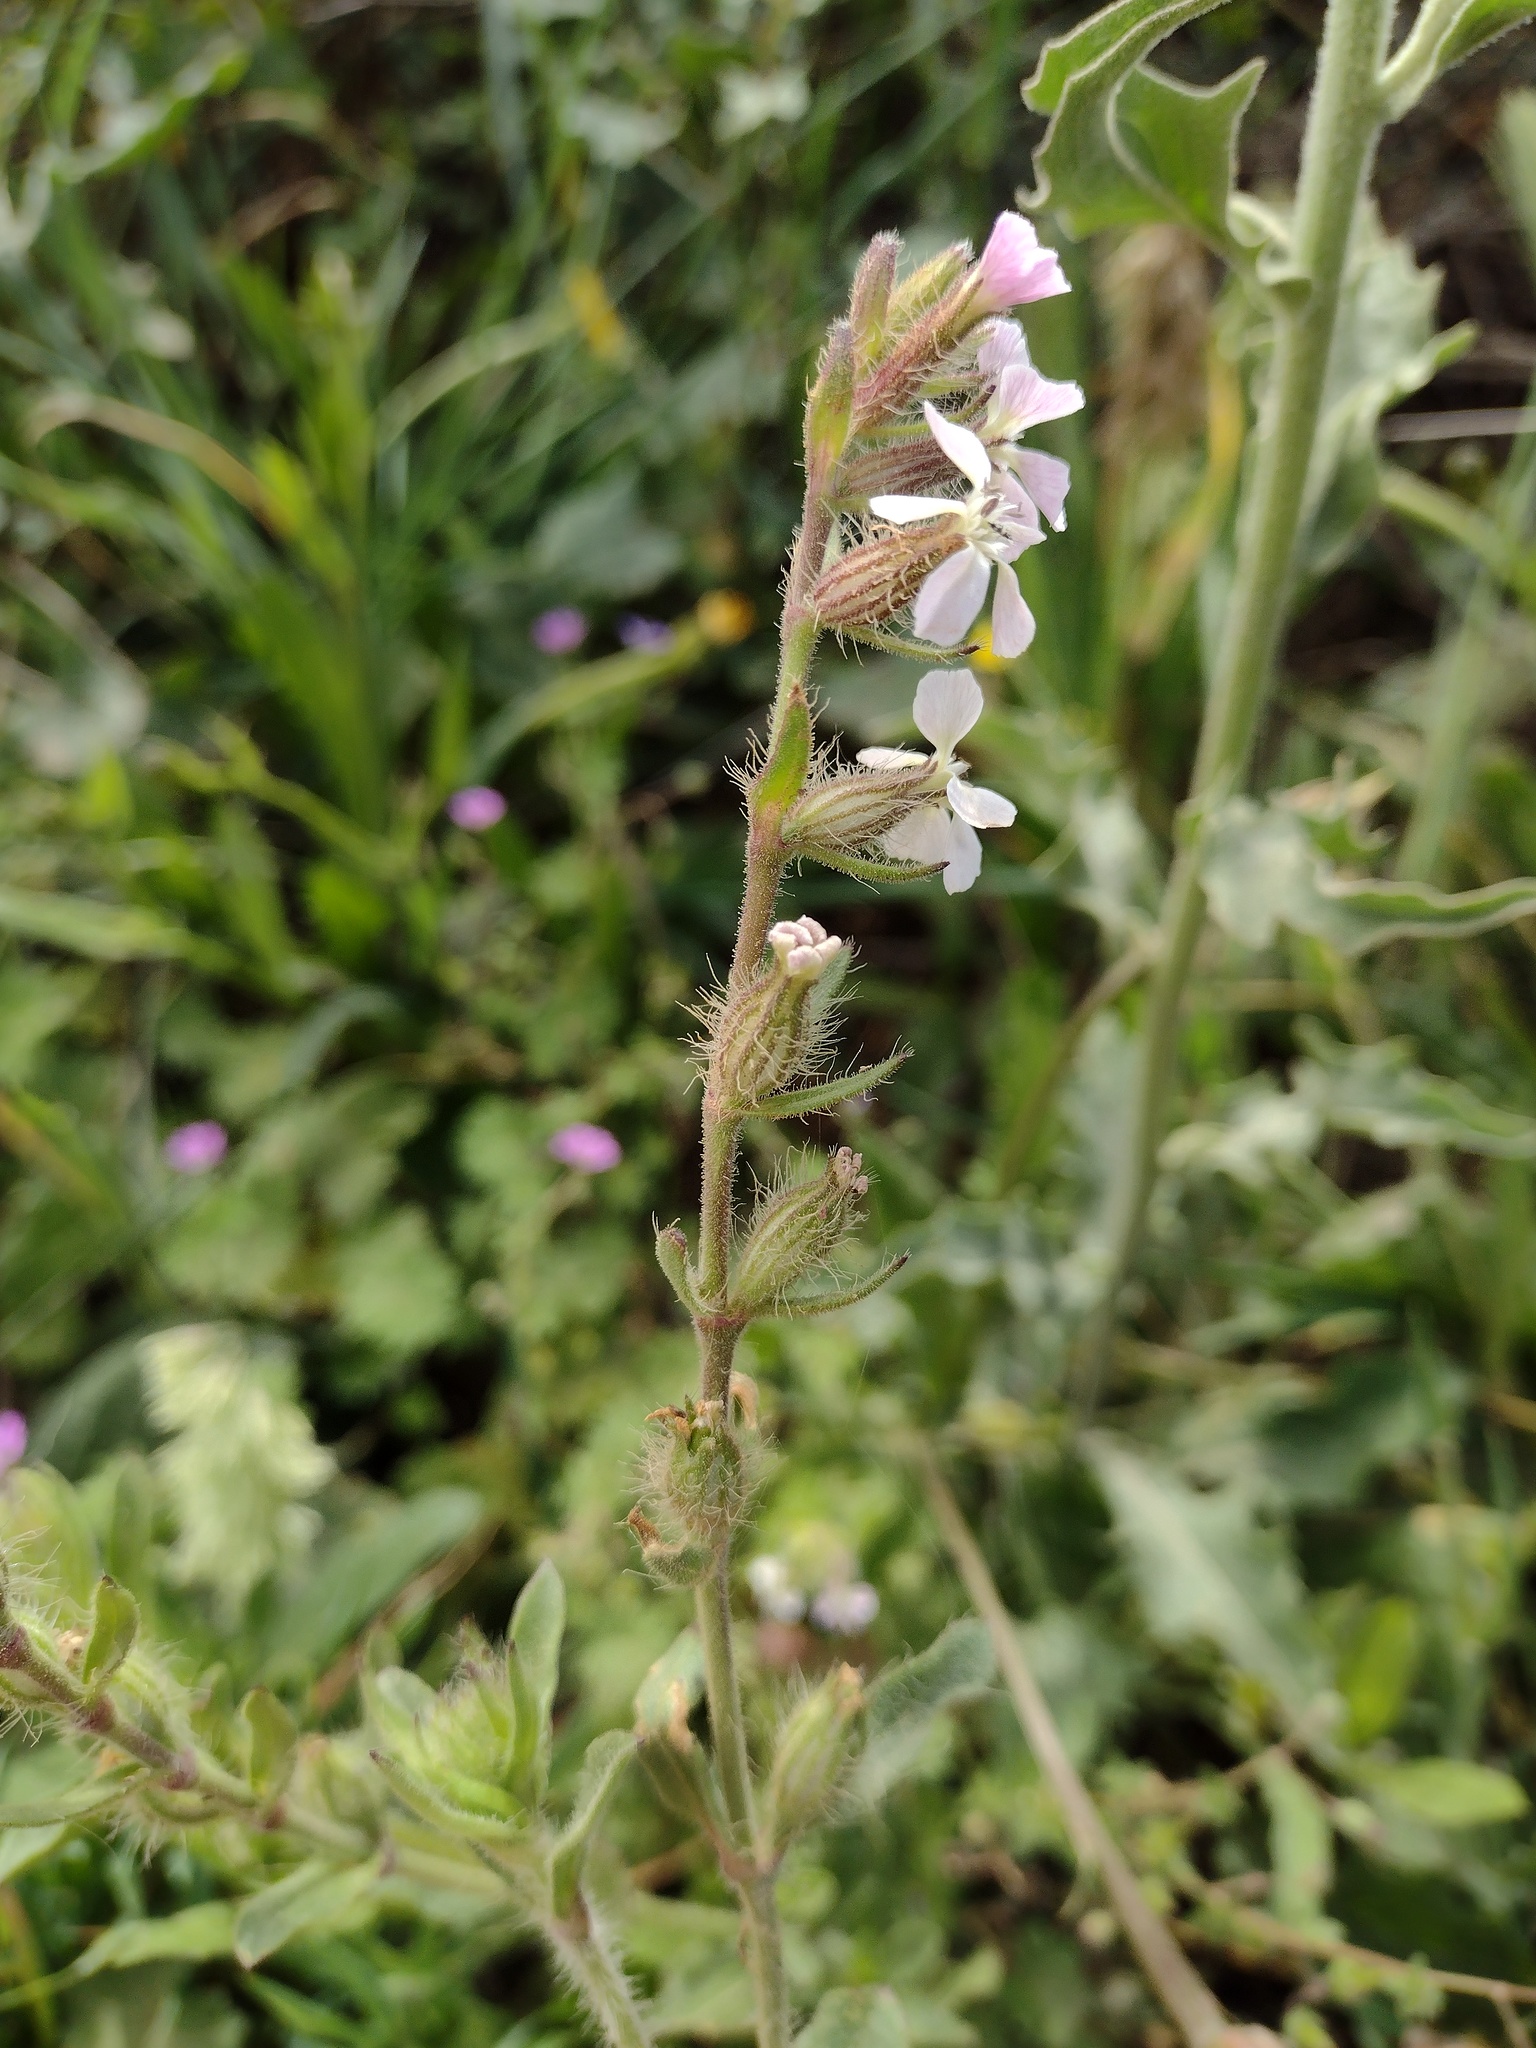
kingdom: Plantae
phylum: Tracheophyta
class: Magnoliopsida
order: Caryophyllales
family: Caryophyllaceae
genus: Silene
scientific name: Silene gallica
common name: Small-flowered catchfly
